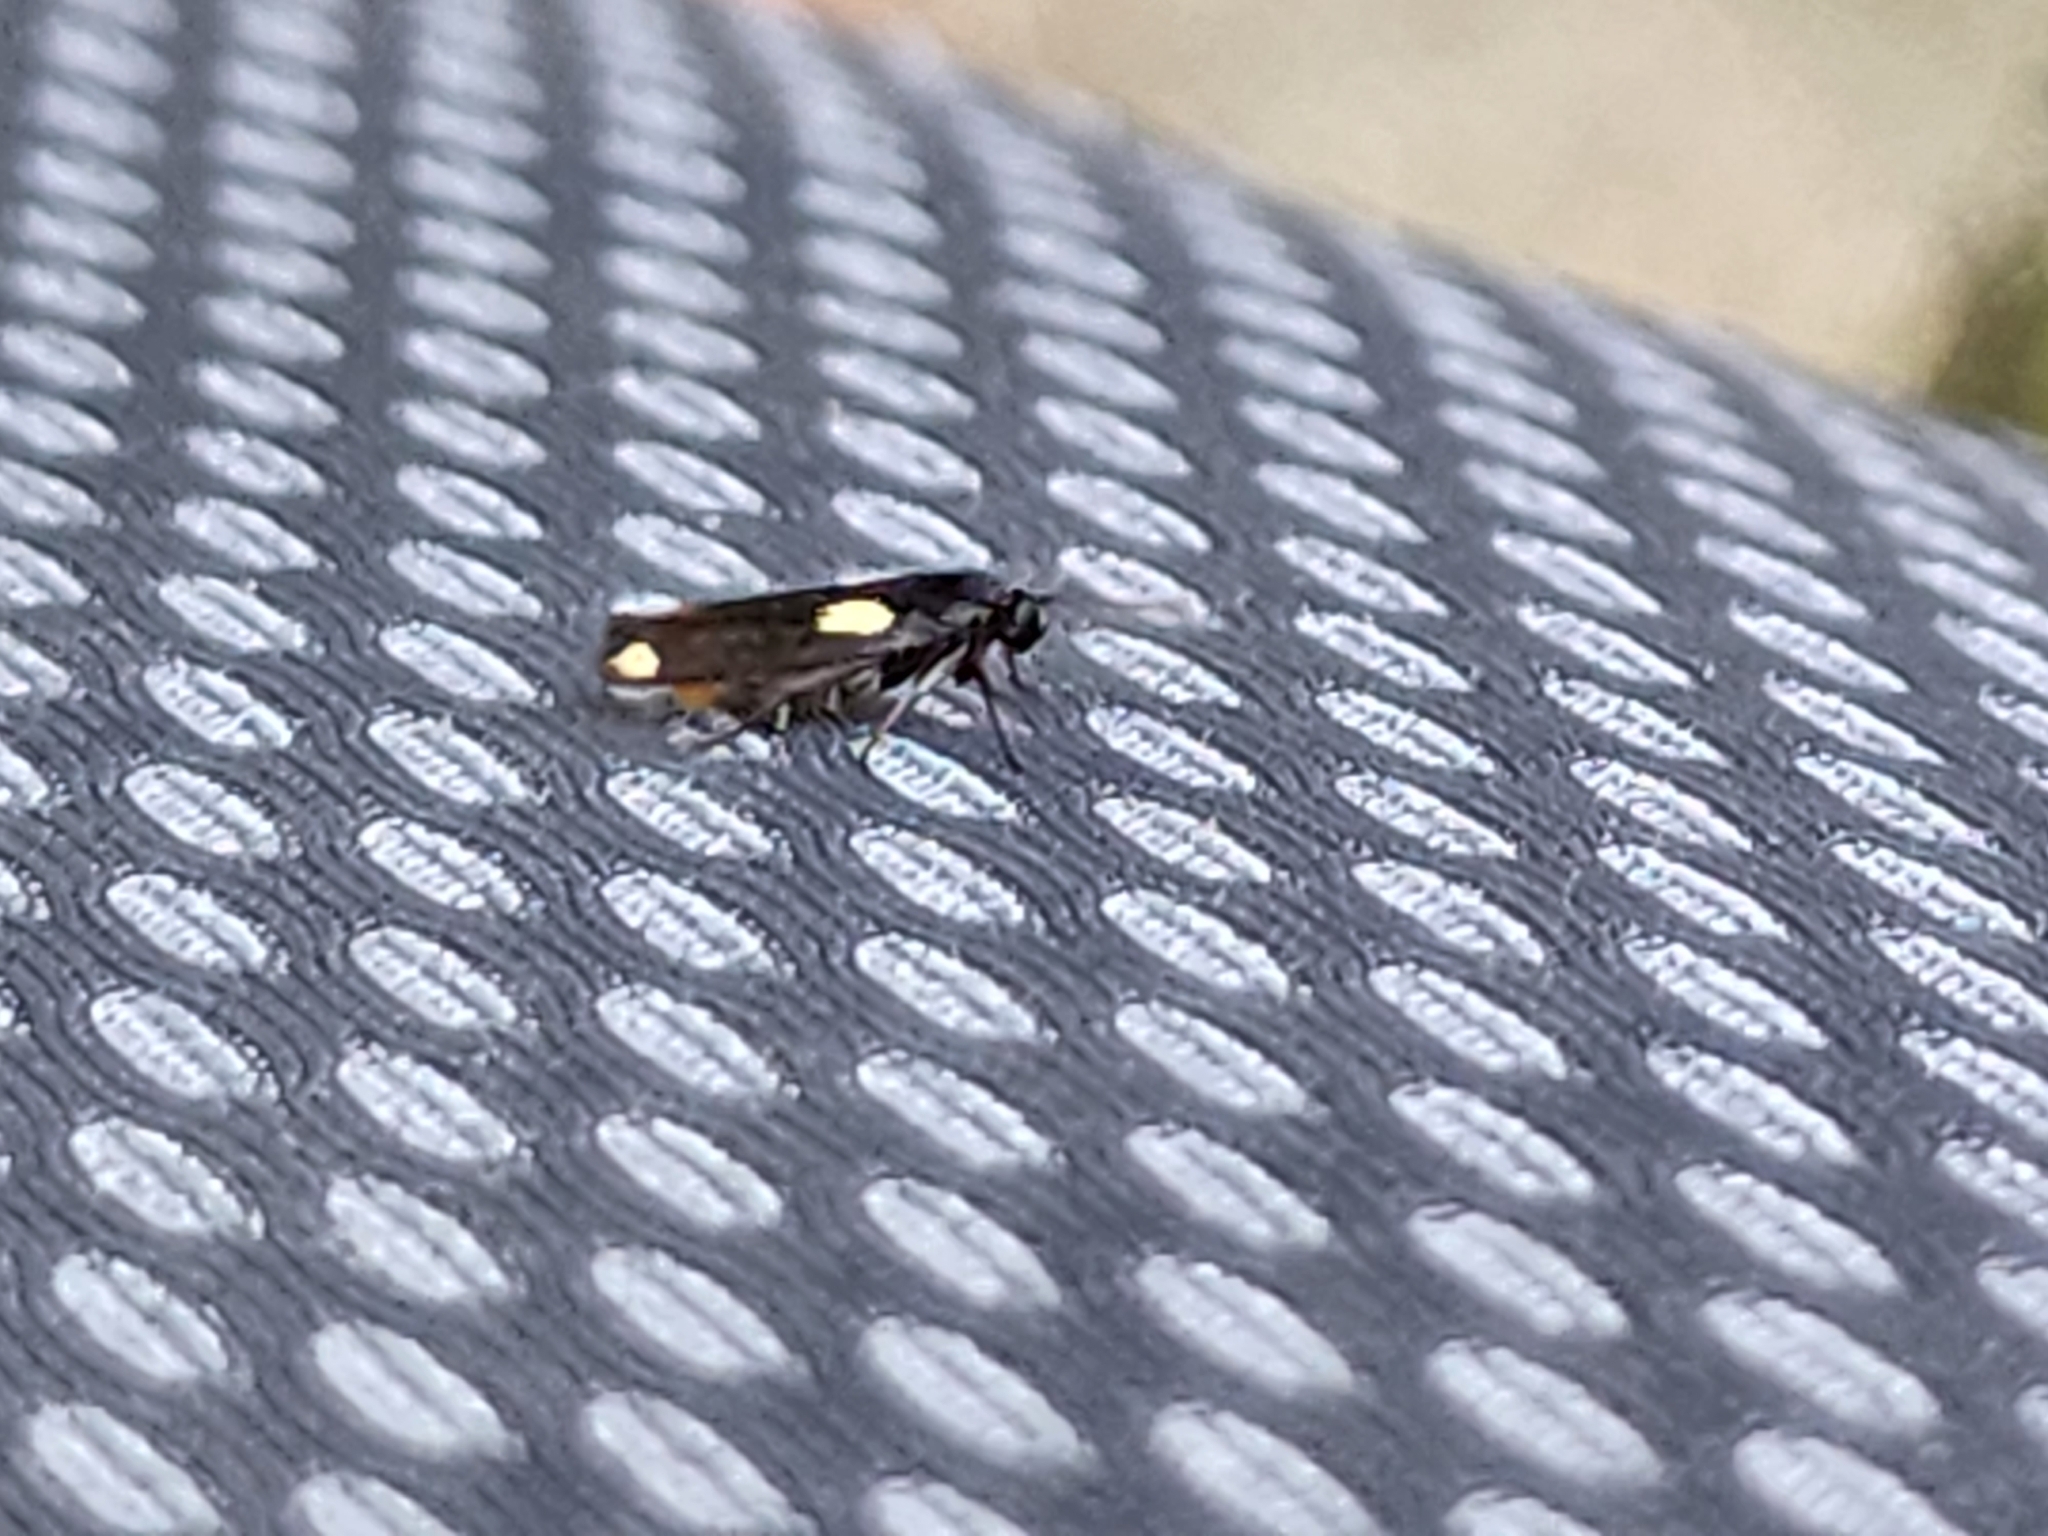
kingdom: Animalia
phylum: Arthropoda
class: Insecta
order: Lepidoptera
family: Scythrididae
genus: Scythris
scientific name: Scythris sinensis
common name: Kentish owlet
